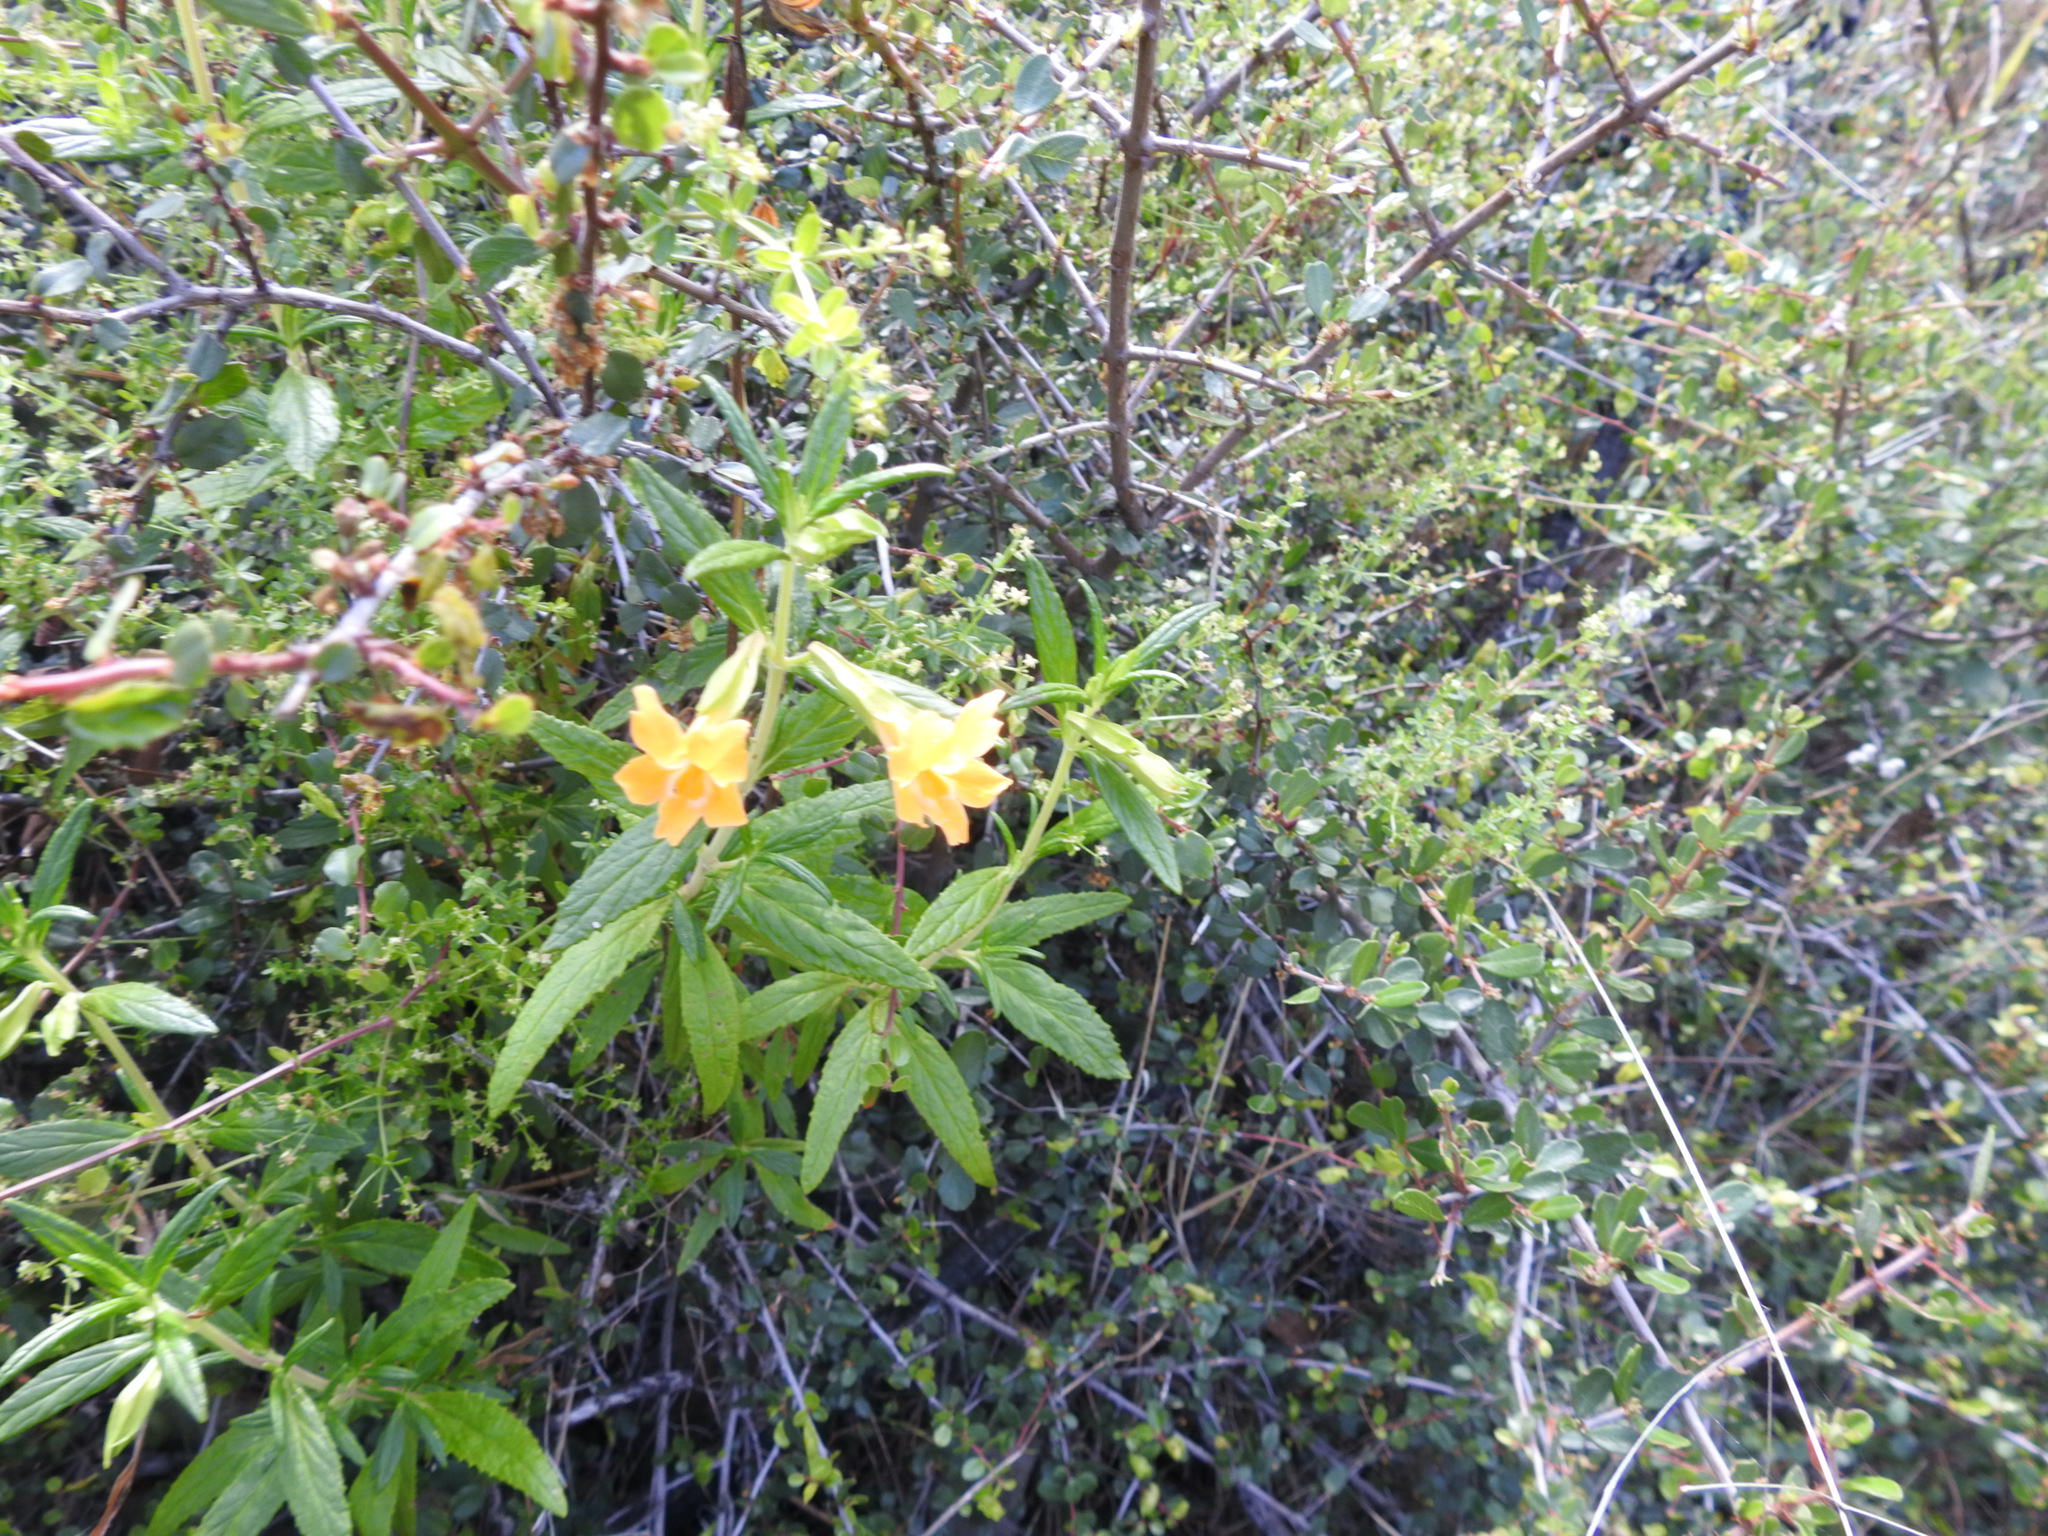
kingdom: Plantae
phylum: Tracheophyta
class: Magnoliopsida
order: Lamiales
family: Phrymaceae
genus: Diplacus
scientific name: Diplacus aurantiacus
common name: Bush monkey-flower
